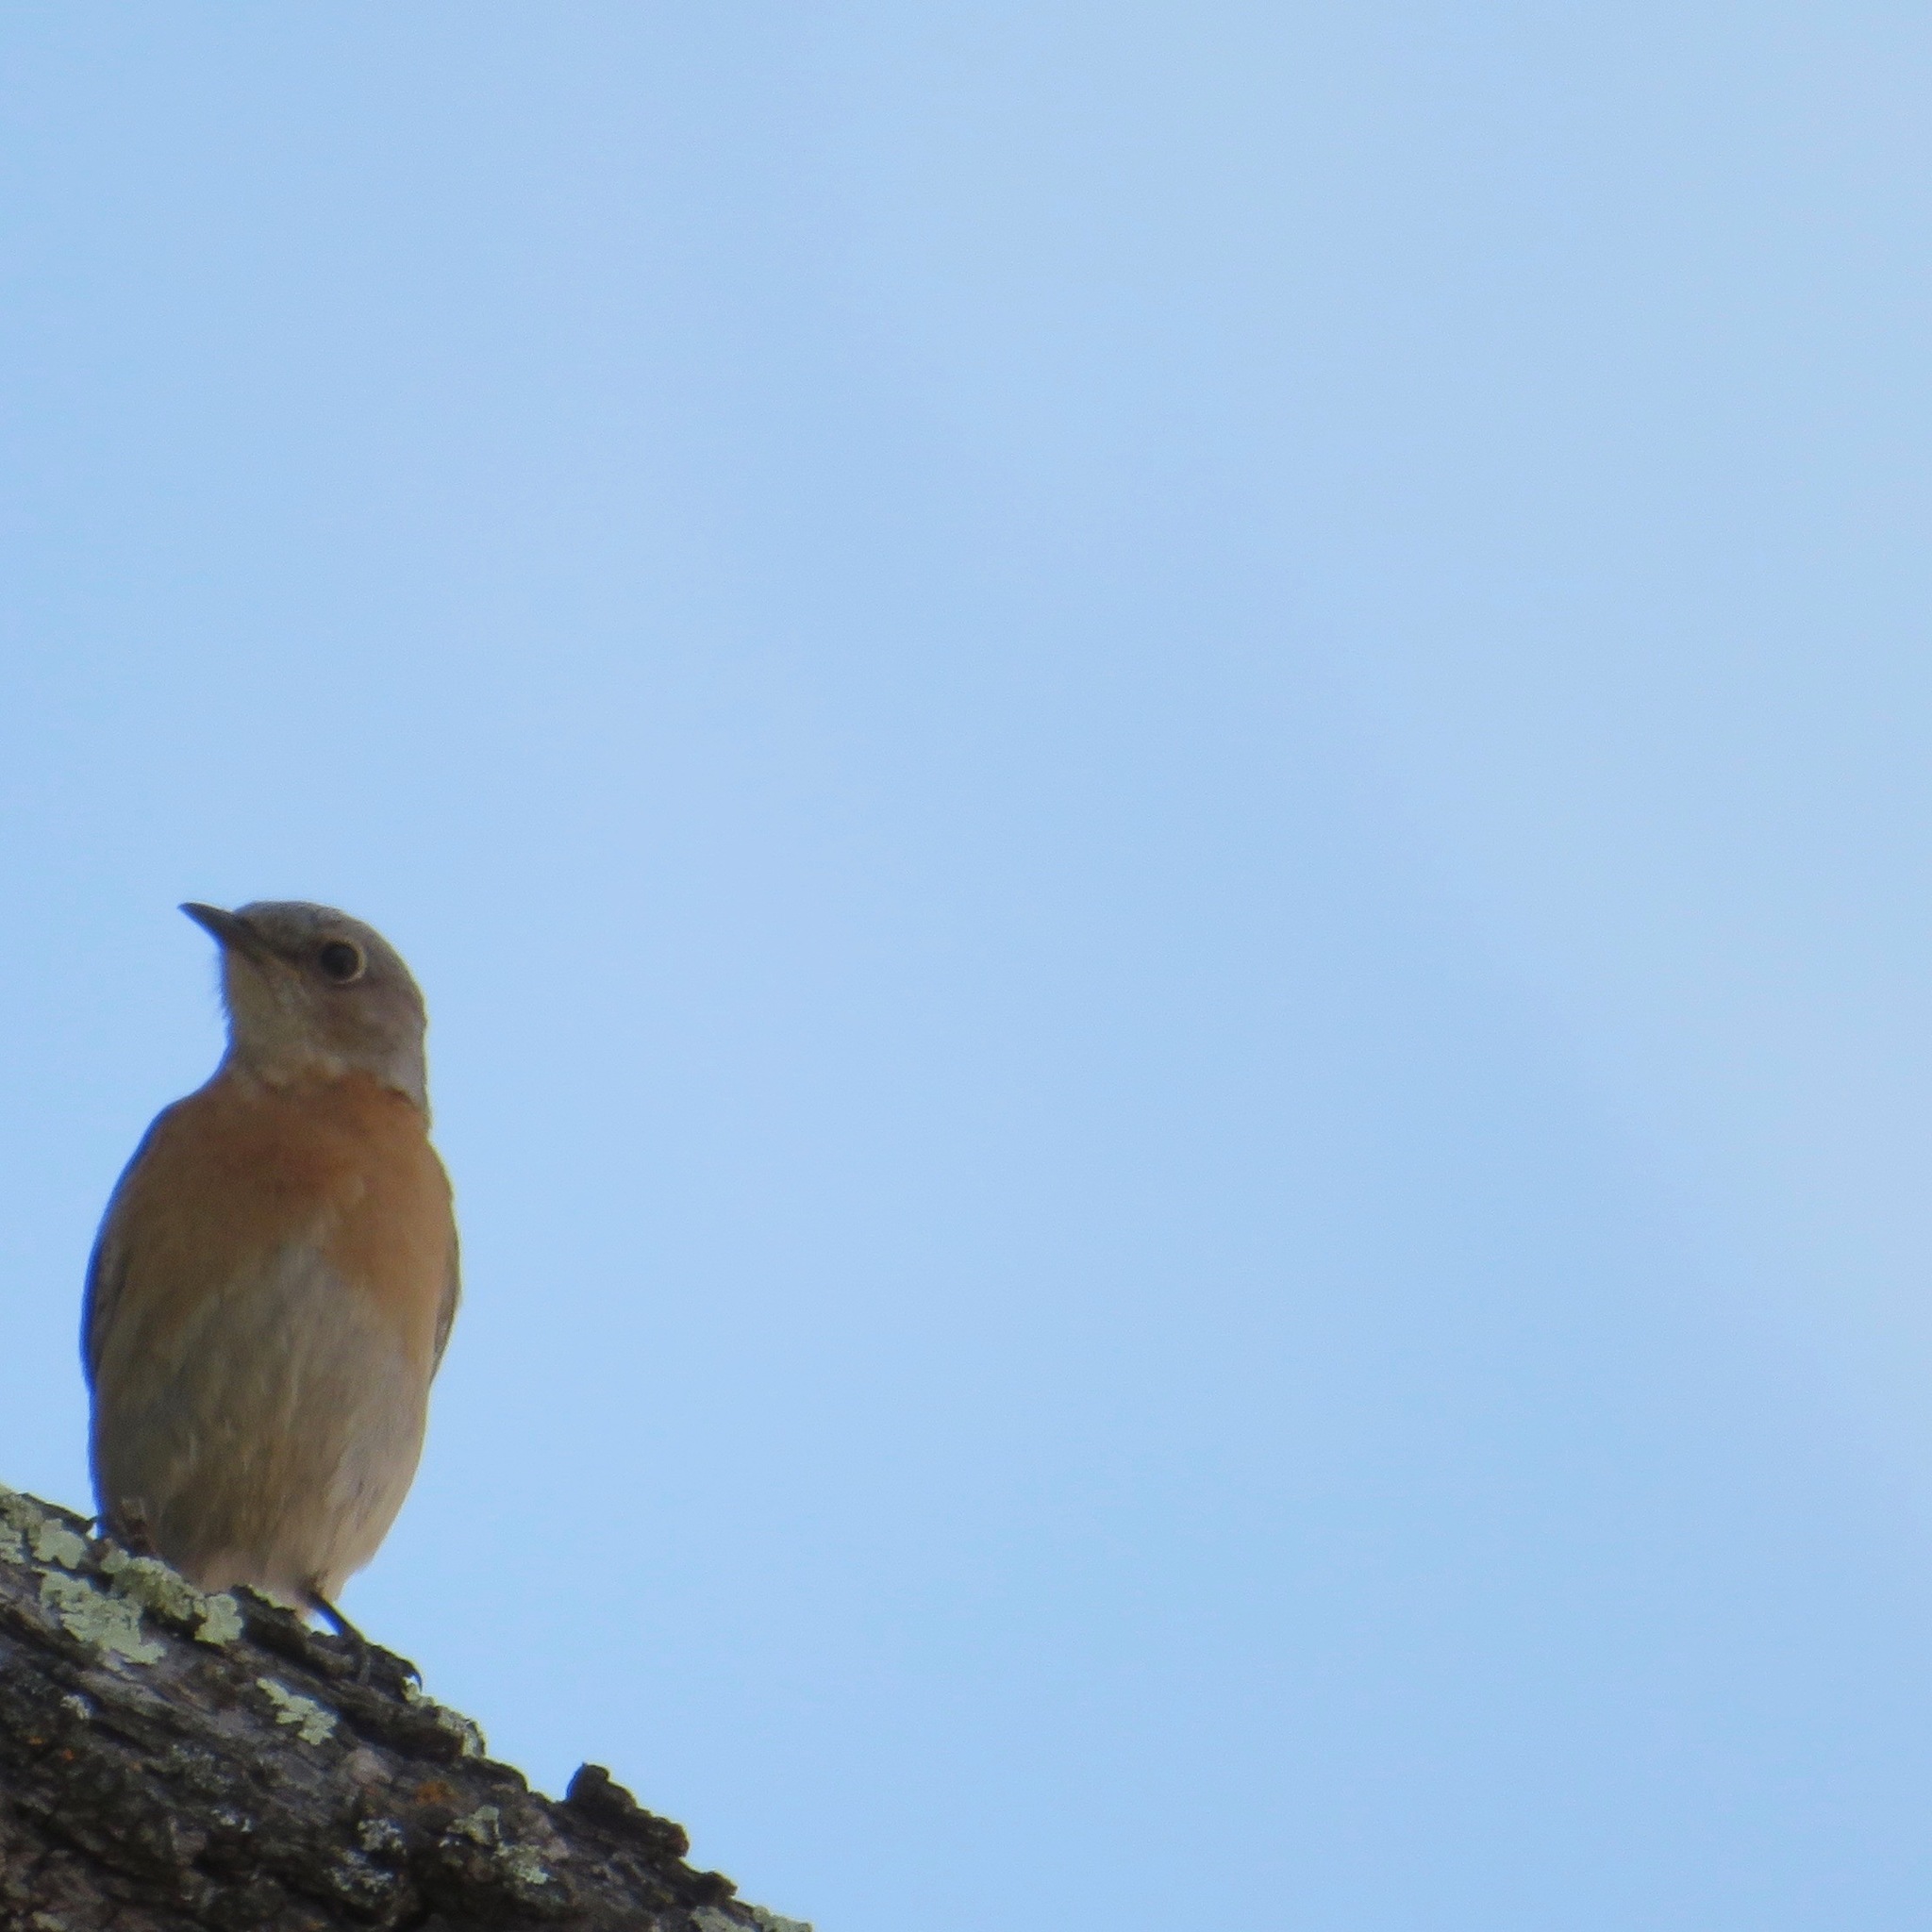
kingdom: Animalia
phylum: Chordata
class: Aves
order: Passeriformes
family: Turdidae
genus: Sialia
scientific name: Sialia mexicana
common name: Western bluebird
